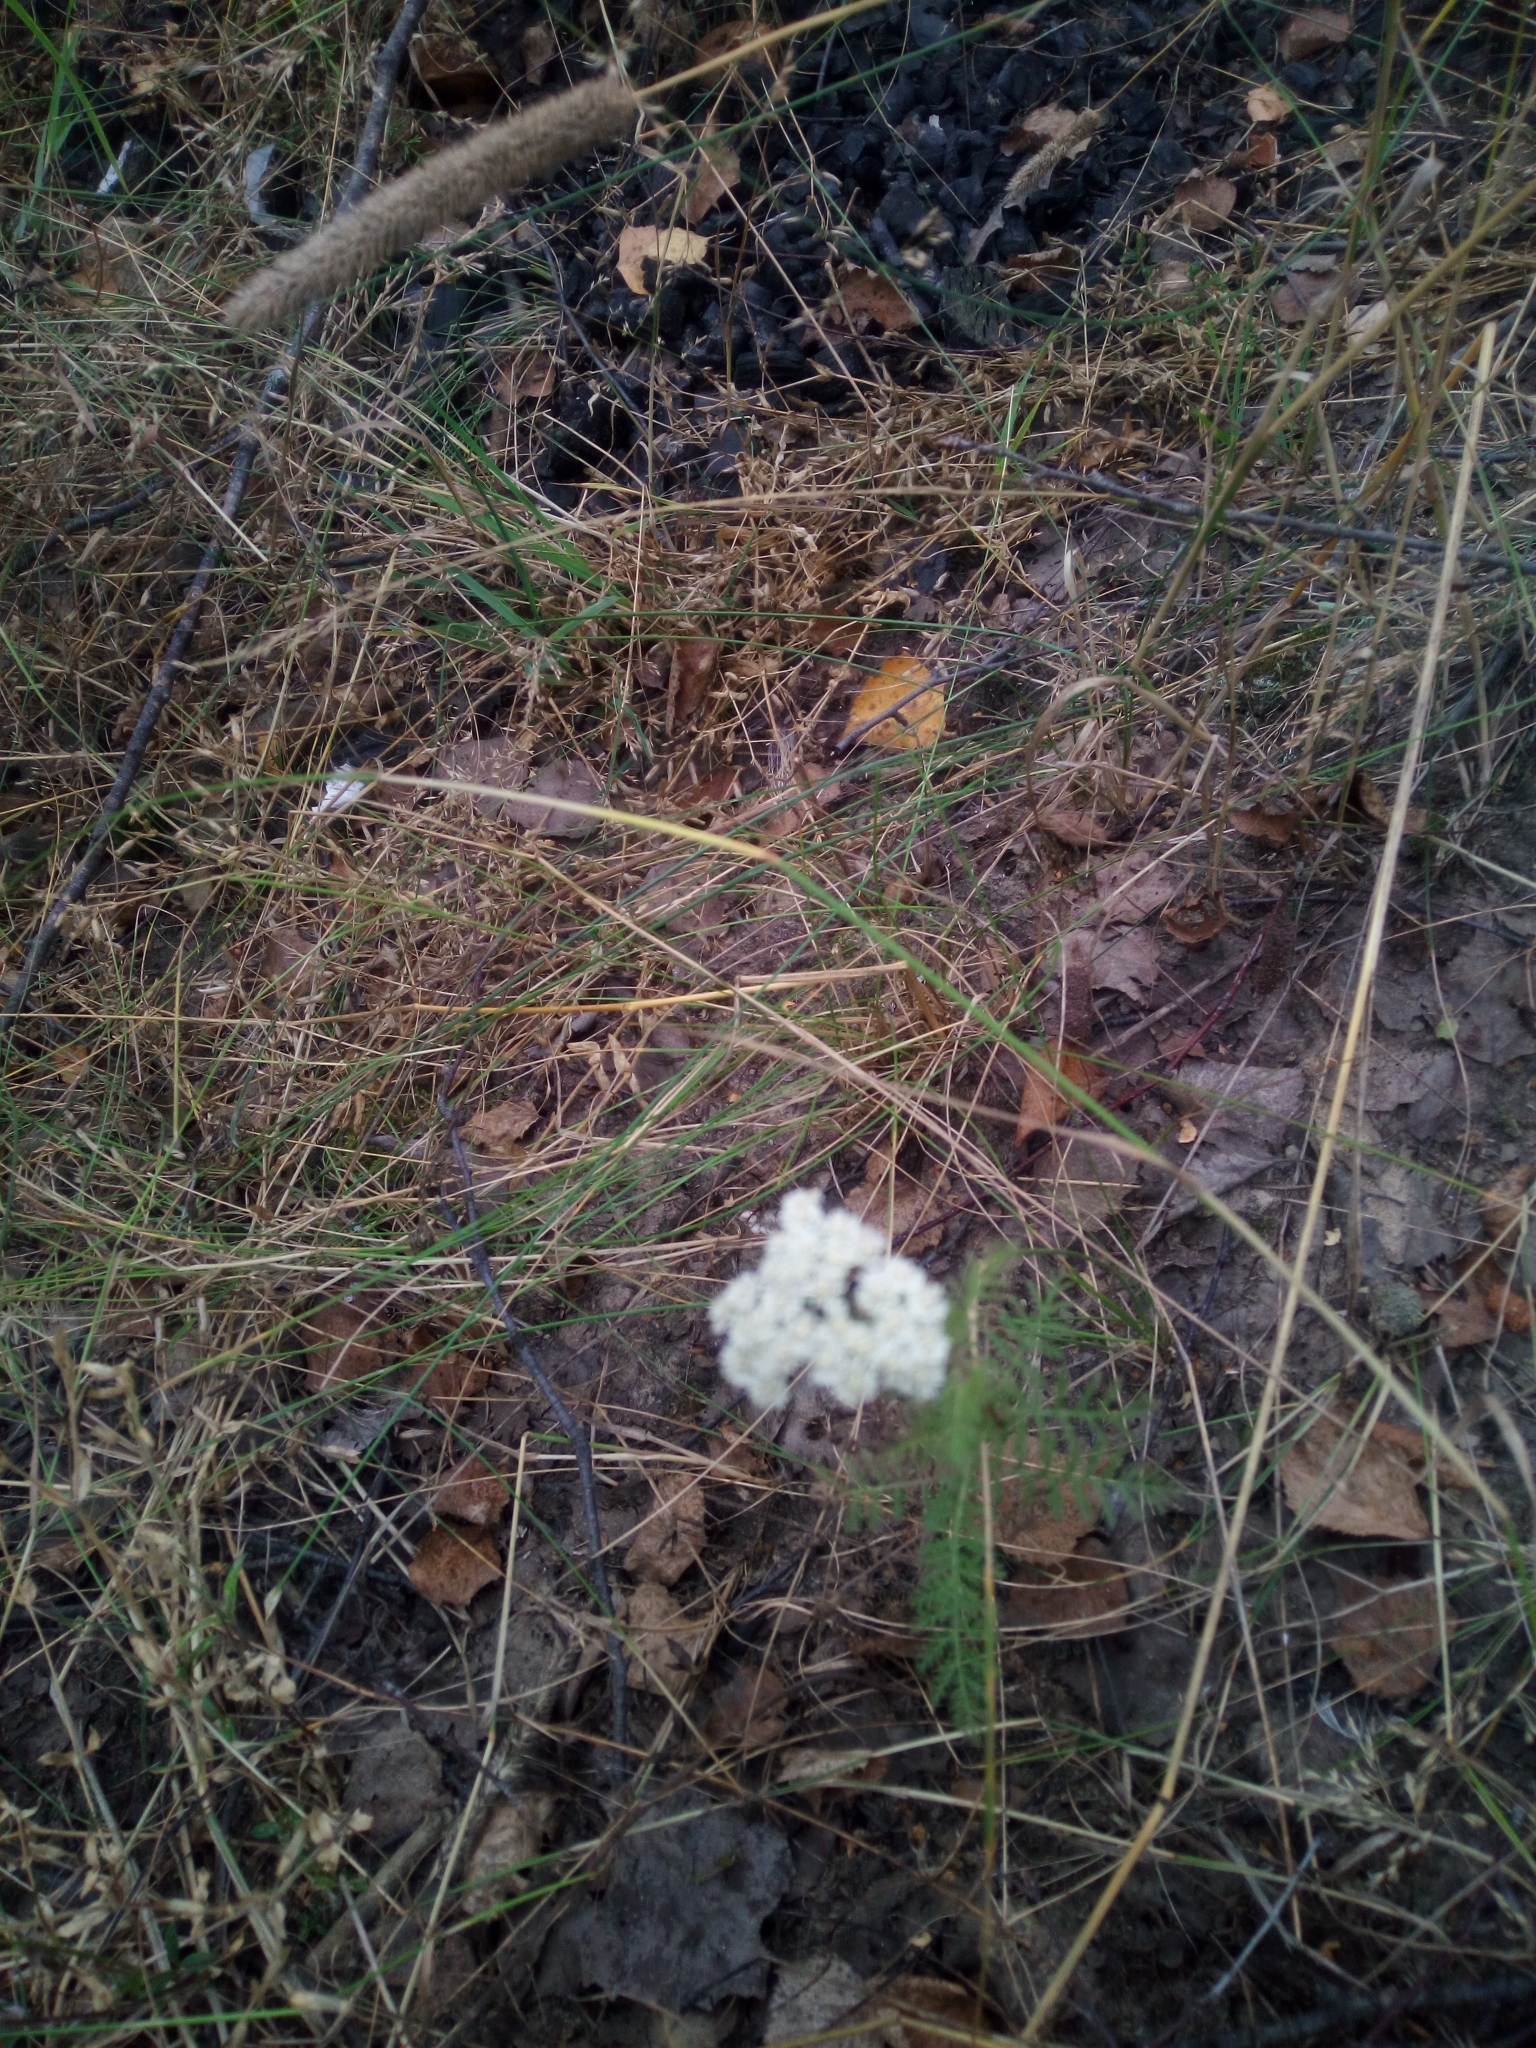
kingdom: Plantae
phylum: Tracheophyta
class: Magnoliopsida
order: Asterales
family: Asteraceae
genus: Achillea
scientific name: Achillea millefolium
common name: Yarrow
